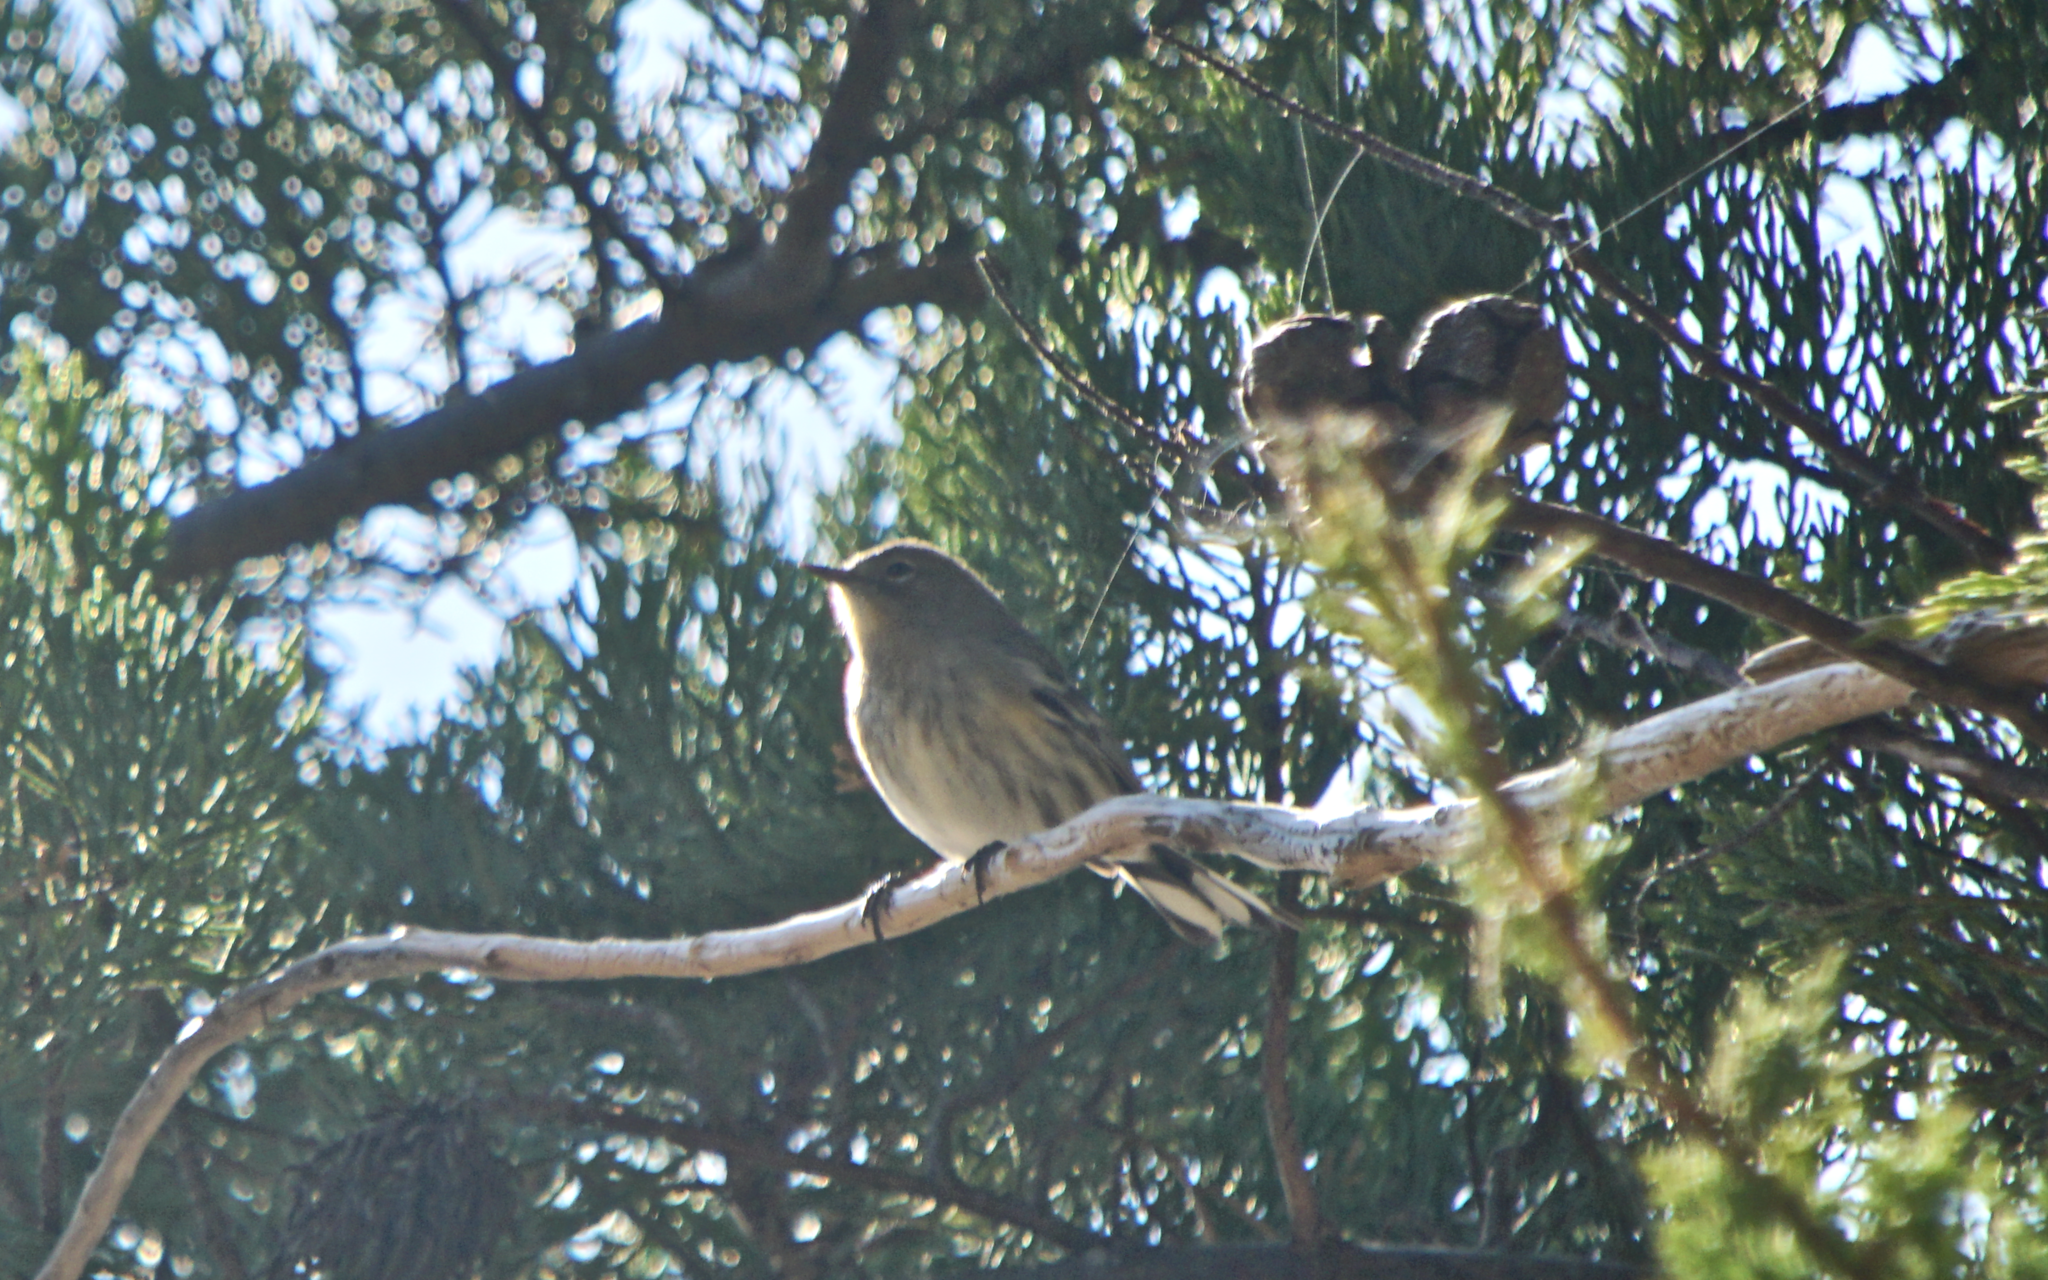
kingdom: Animalia
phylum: Chordata
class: Aves
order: Passeriformes
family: Parulidae
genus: Setophaga
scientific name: Setophaga coronata
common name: Myrtle warbler
